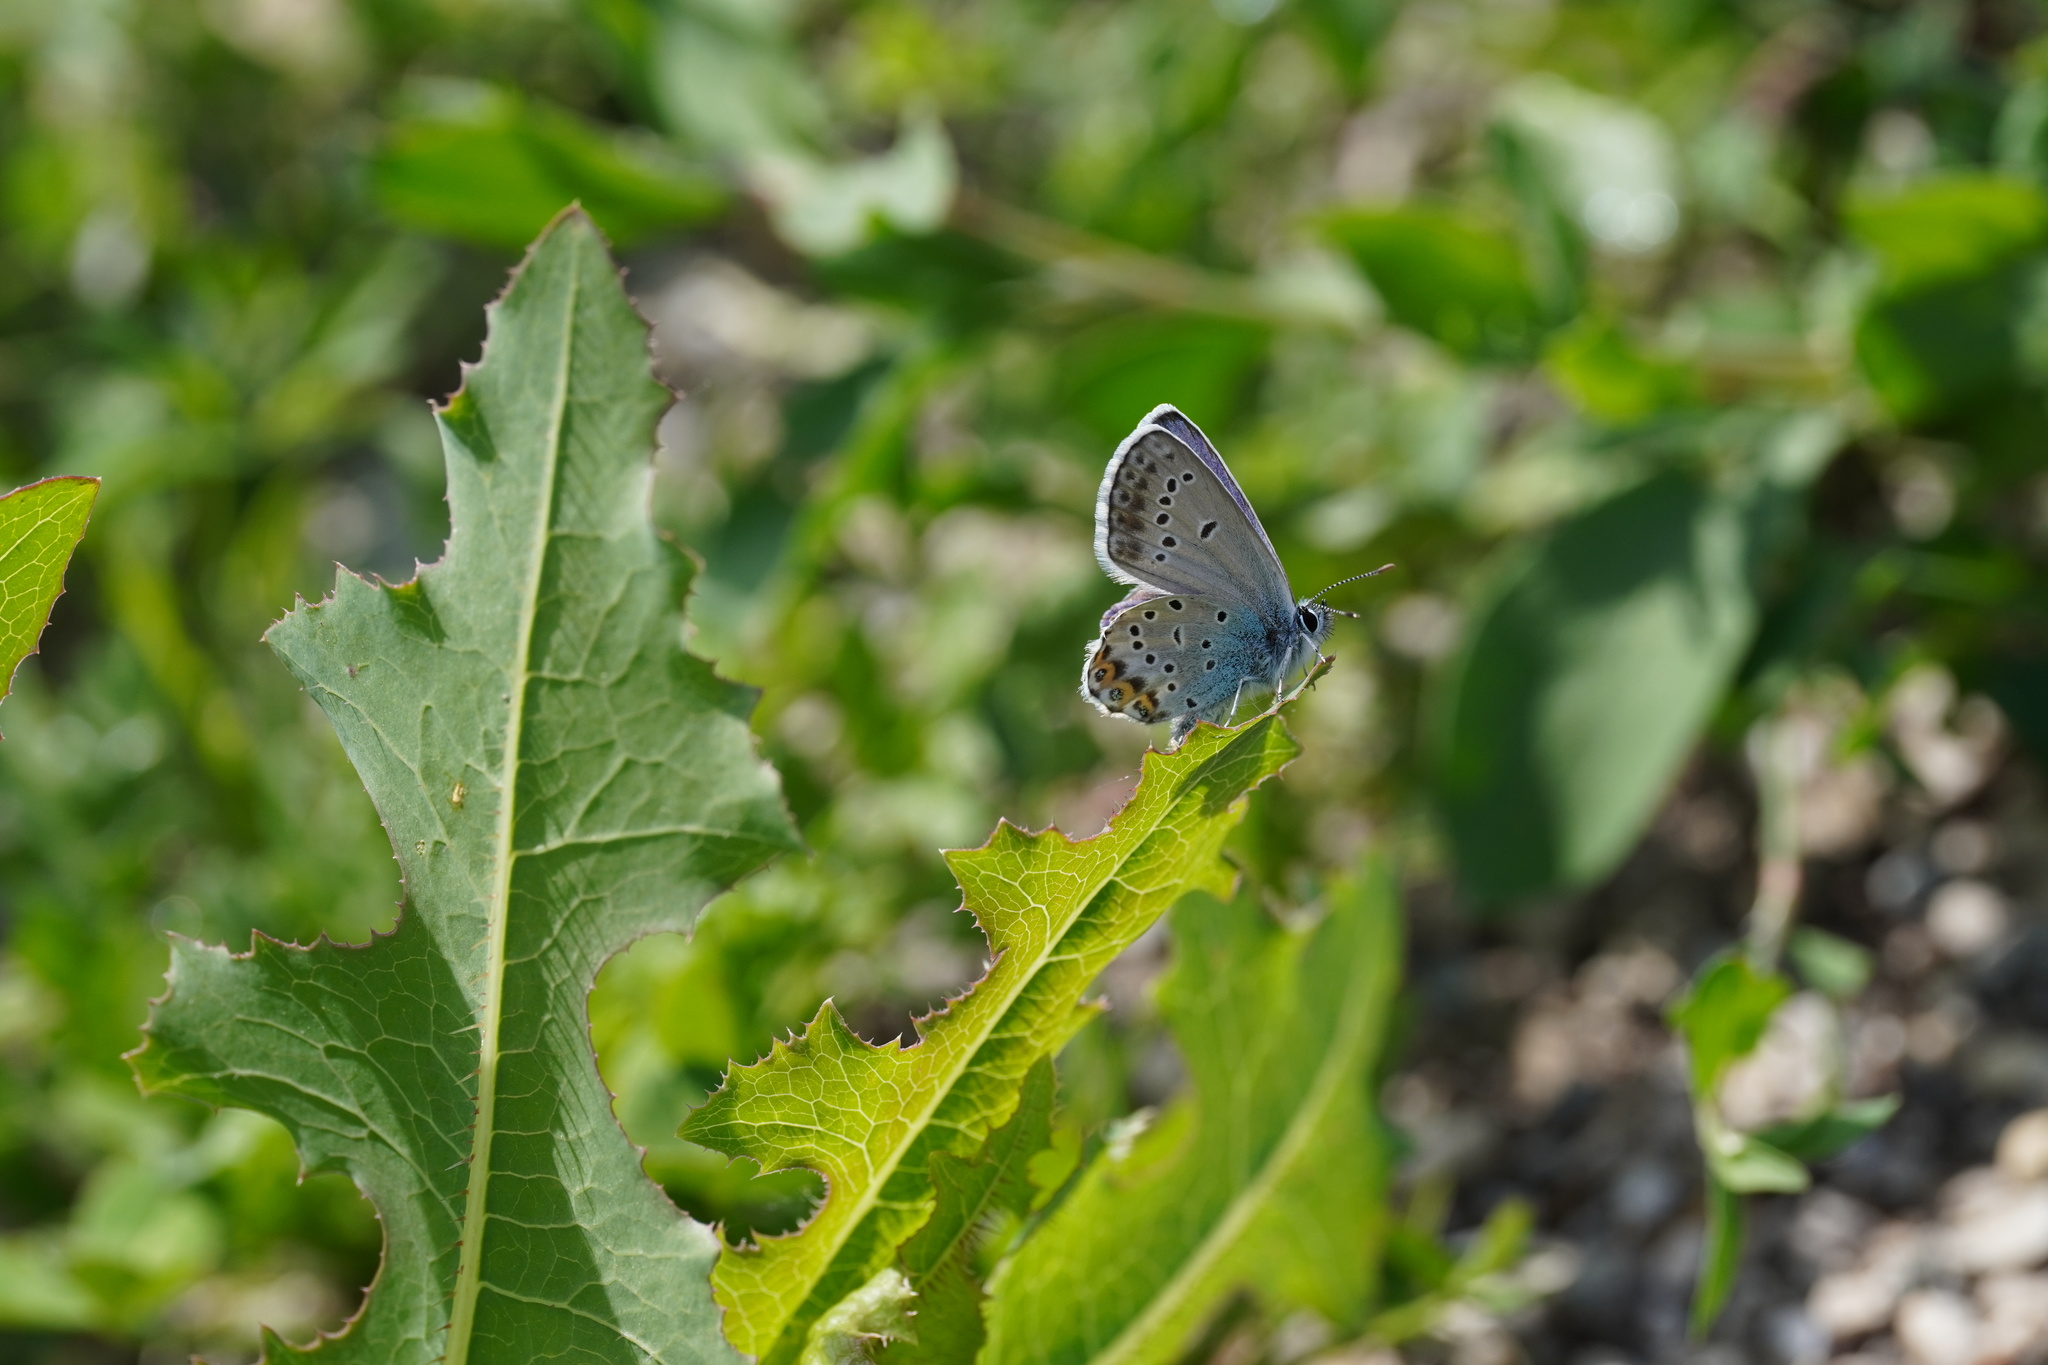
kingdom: Animalia
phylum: Arthropoda
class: Insecta
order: Lepidoptera
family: Lycaenidae
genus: Lycaeides
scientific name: Lycaeides idas
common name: Northern blue
